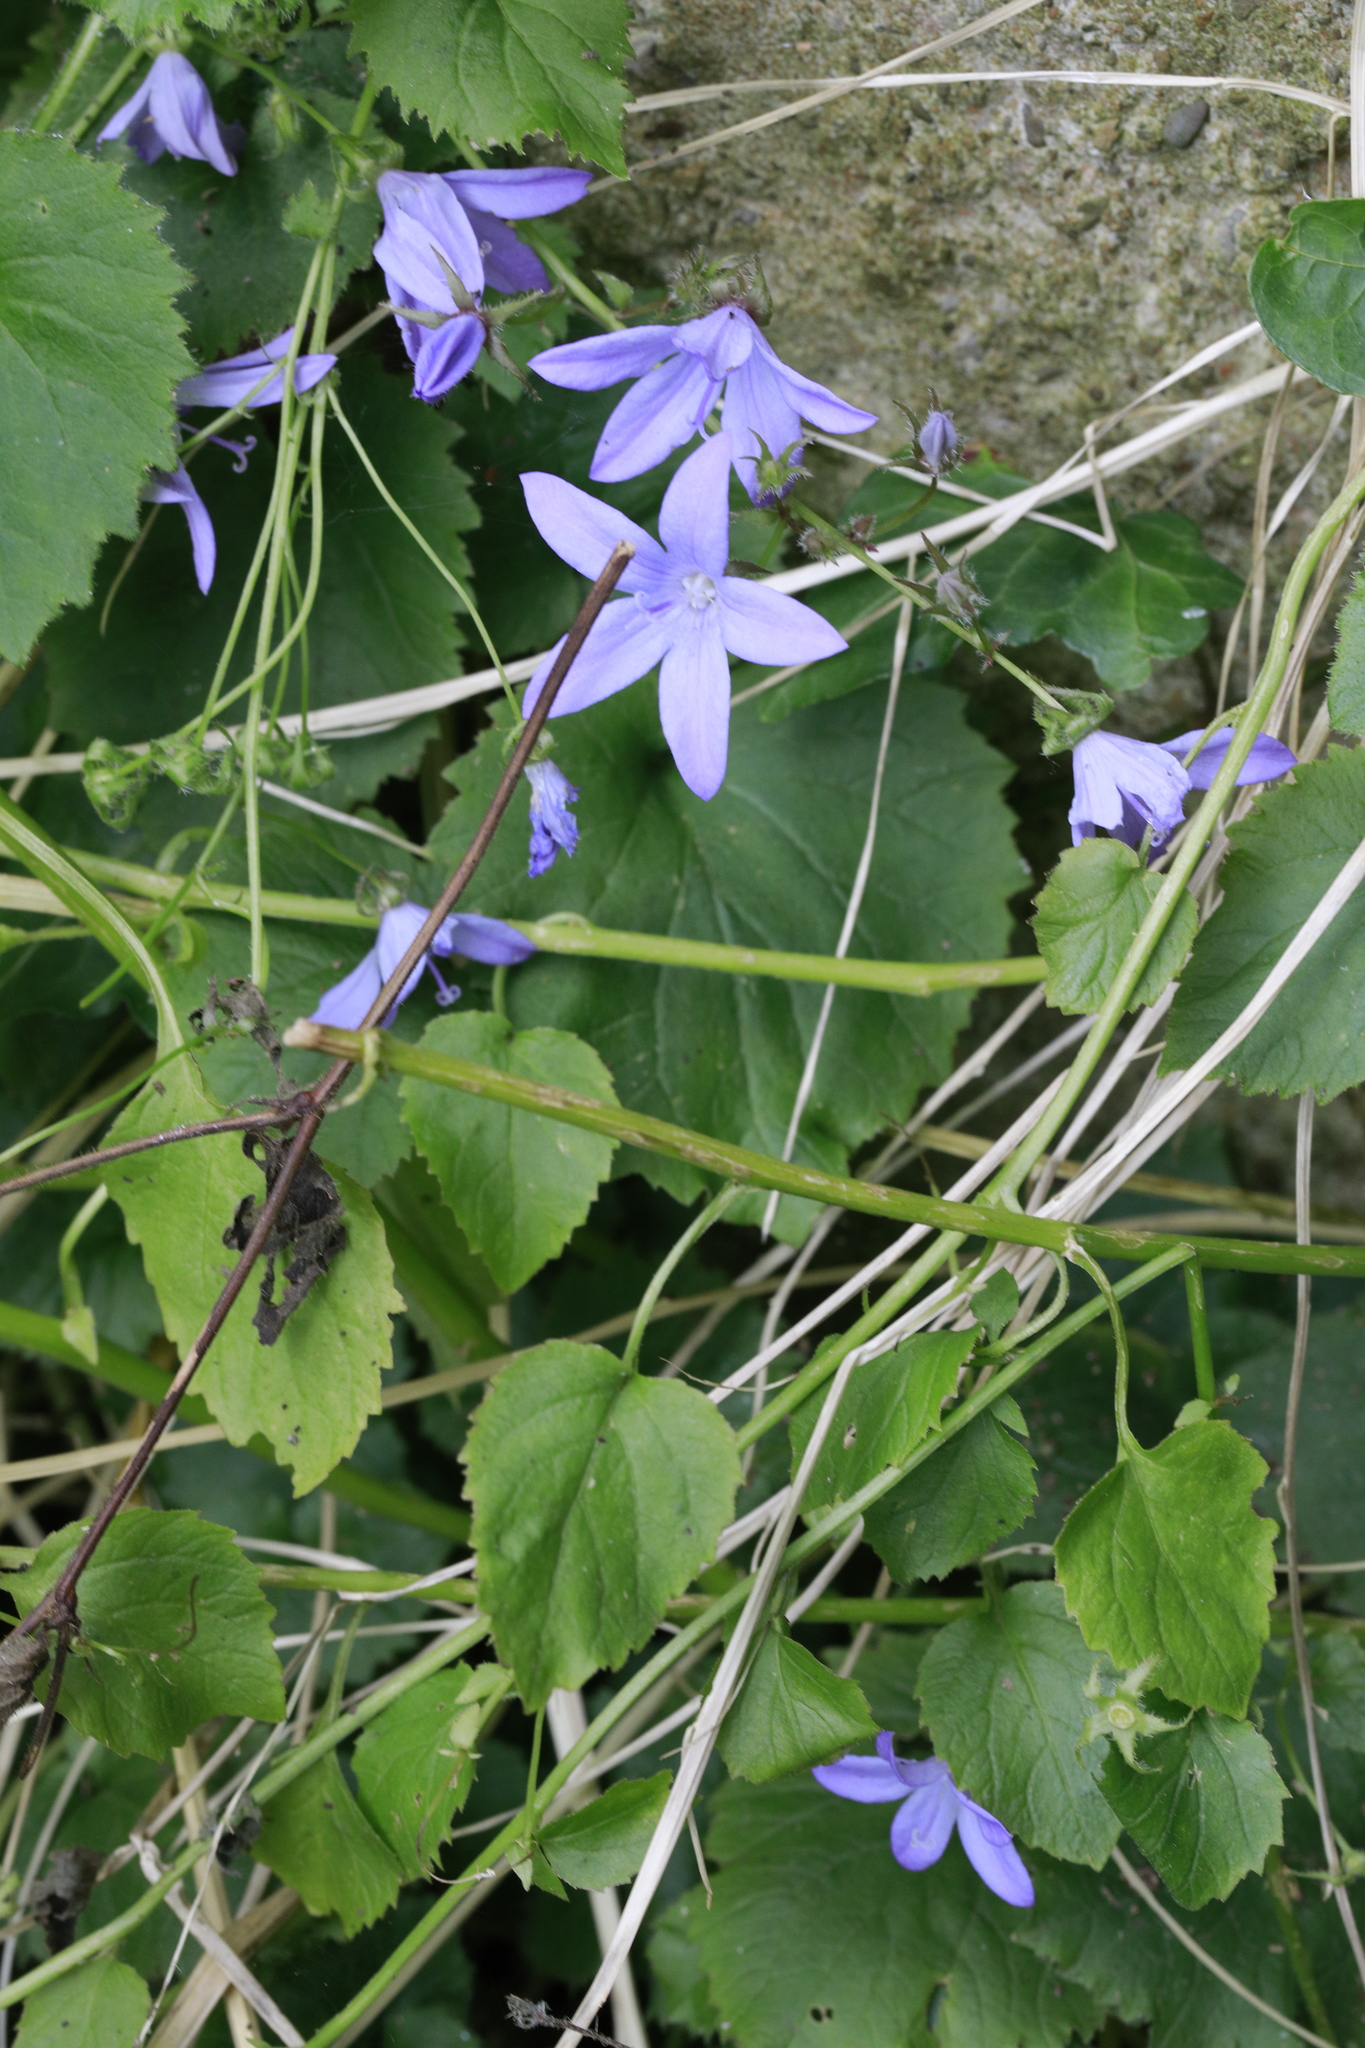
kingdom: Plantae
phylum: Tracheophyta
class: Magnoliopsida
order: Asterales
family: Campanulaceae
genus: Campanula
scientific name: Campanula poscharskyana
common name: Trailing bellflower
